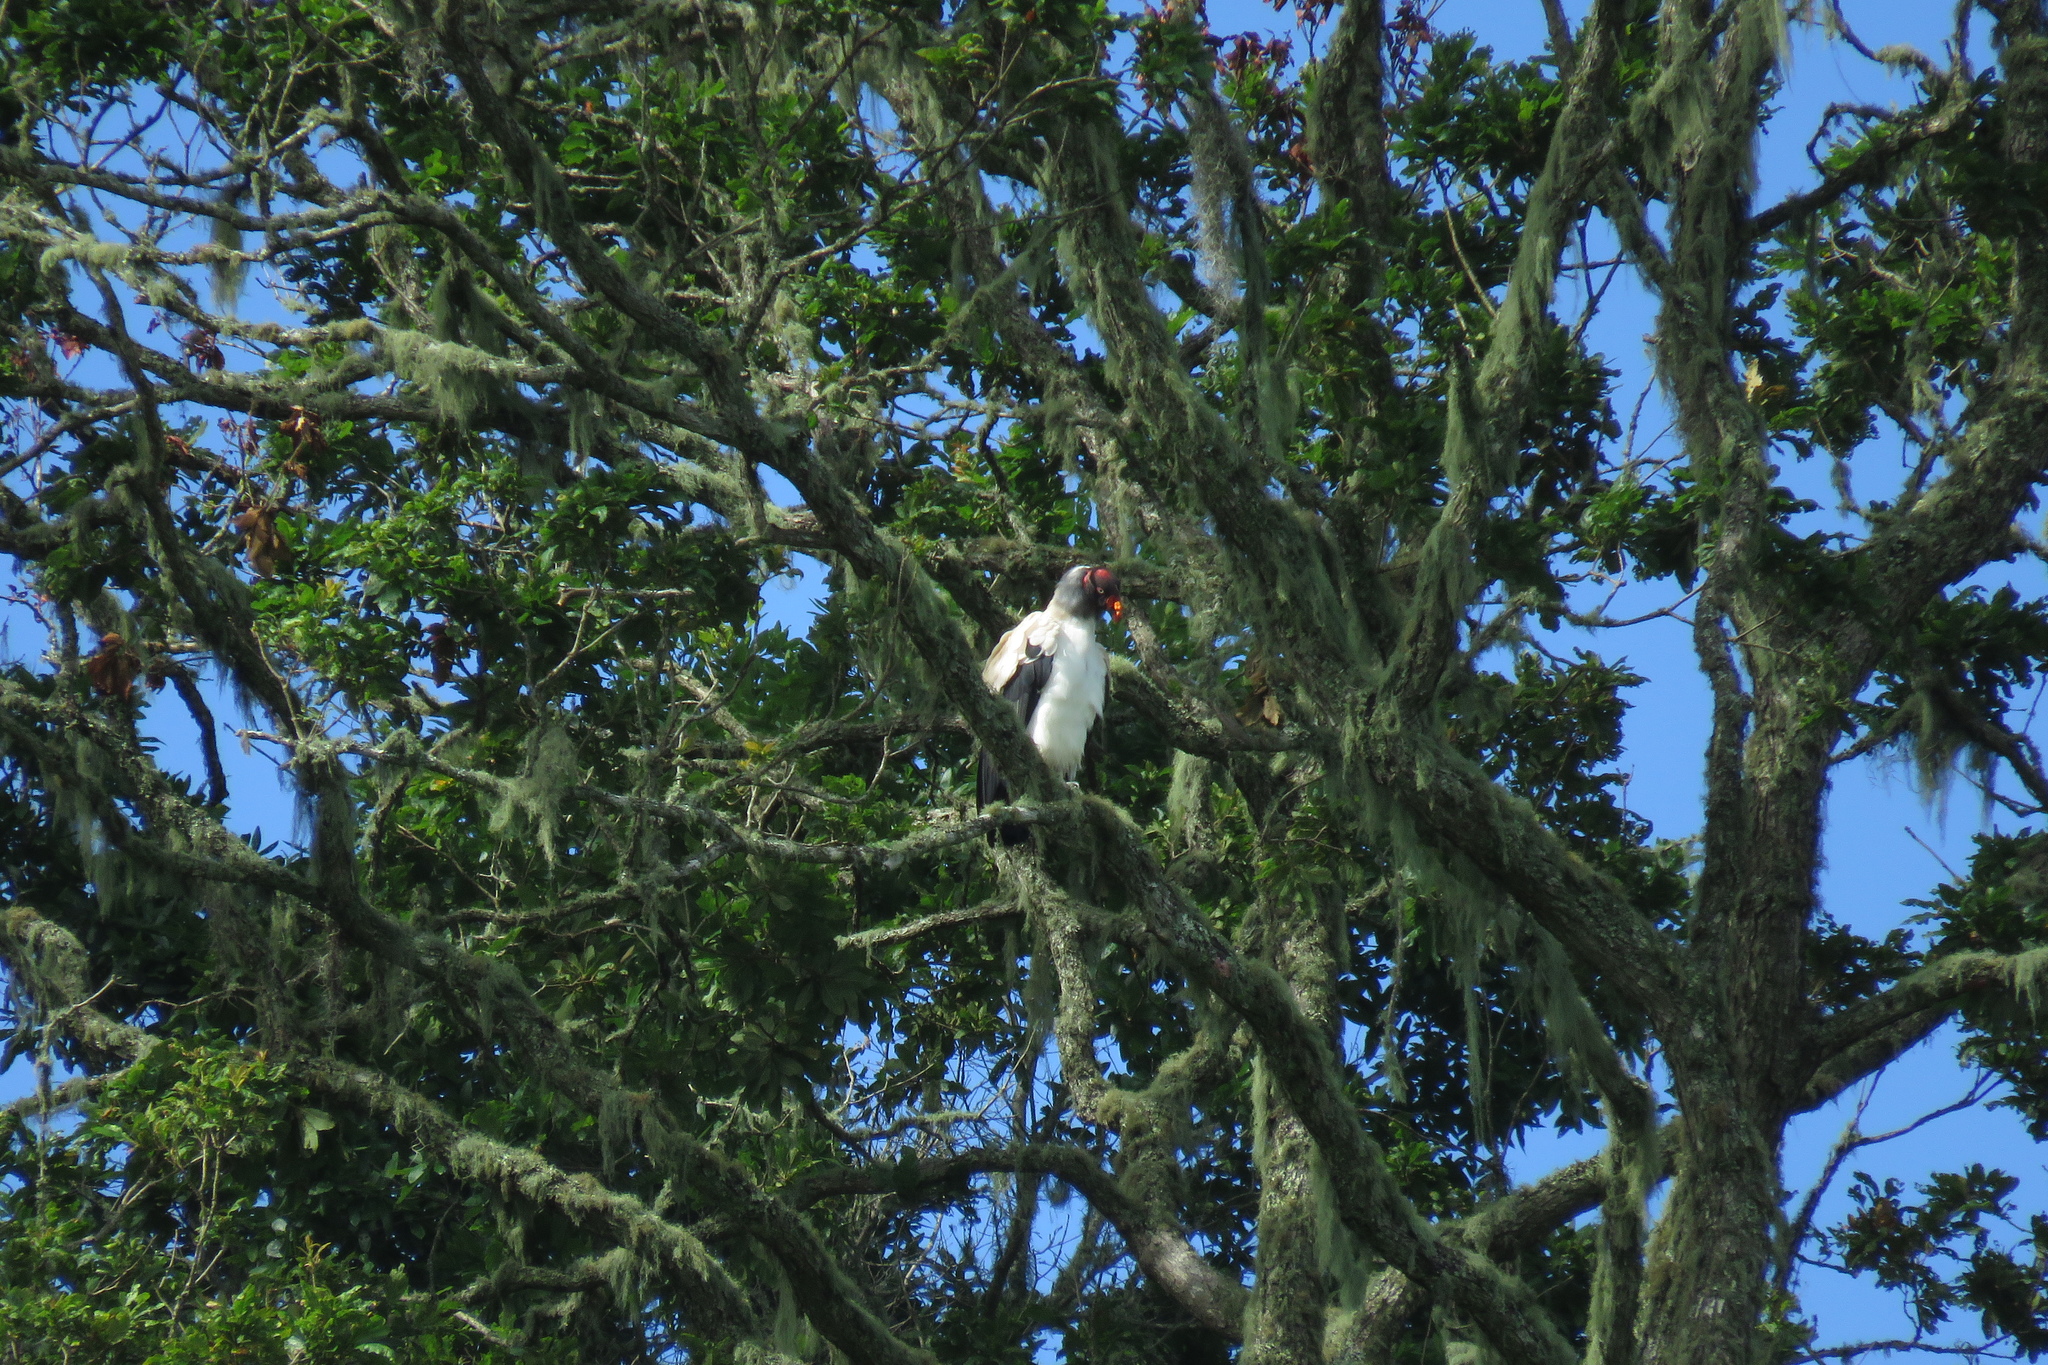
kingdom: Animalia
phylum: Chordata
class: Aves
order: Accipitriformes
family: Cathartidae
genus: Sarcoramphus
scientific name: Sarcoramphus papa
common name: King vulture
